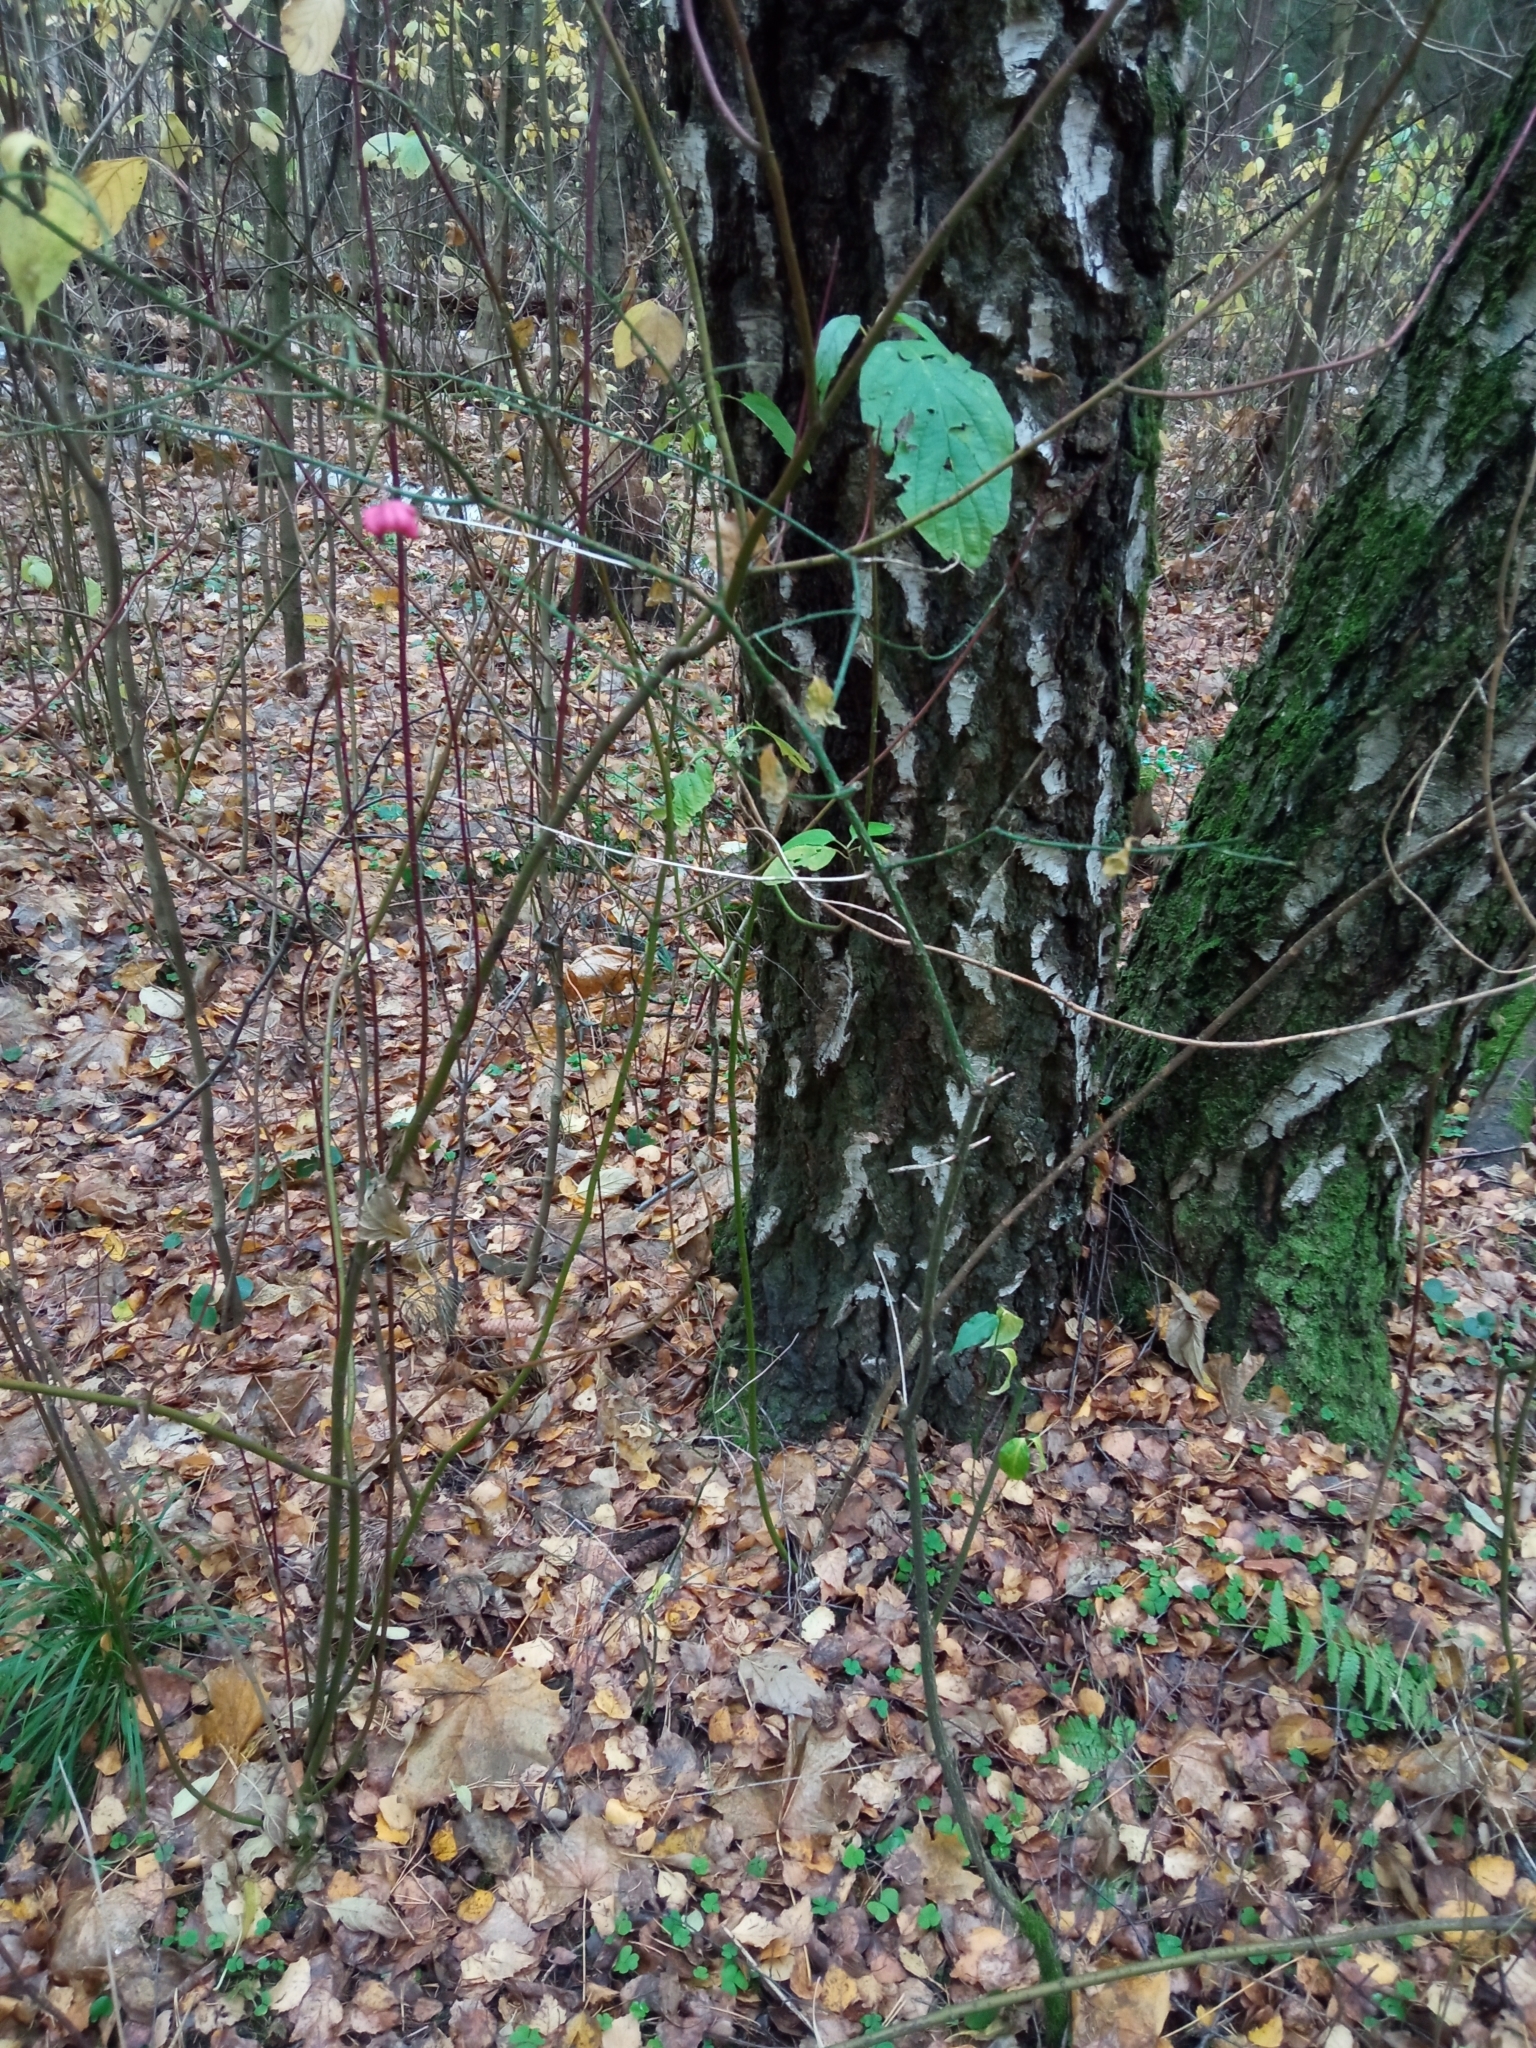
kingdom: Plantae
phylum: Tracheophyta
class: Magnoliopsida
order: Celastrales
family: Celastraceae
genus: Euonymus
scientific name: Euonymus verrucosus
